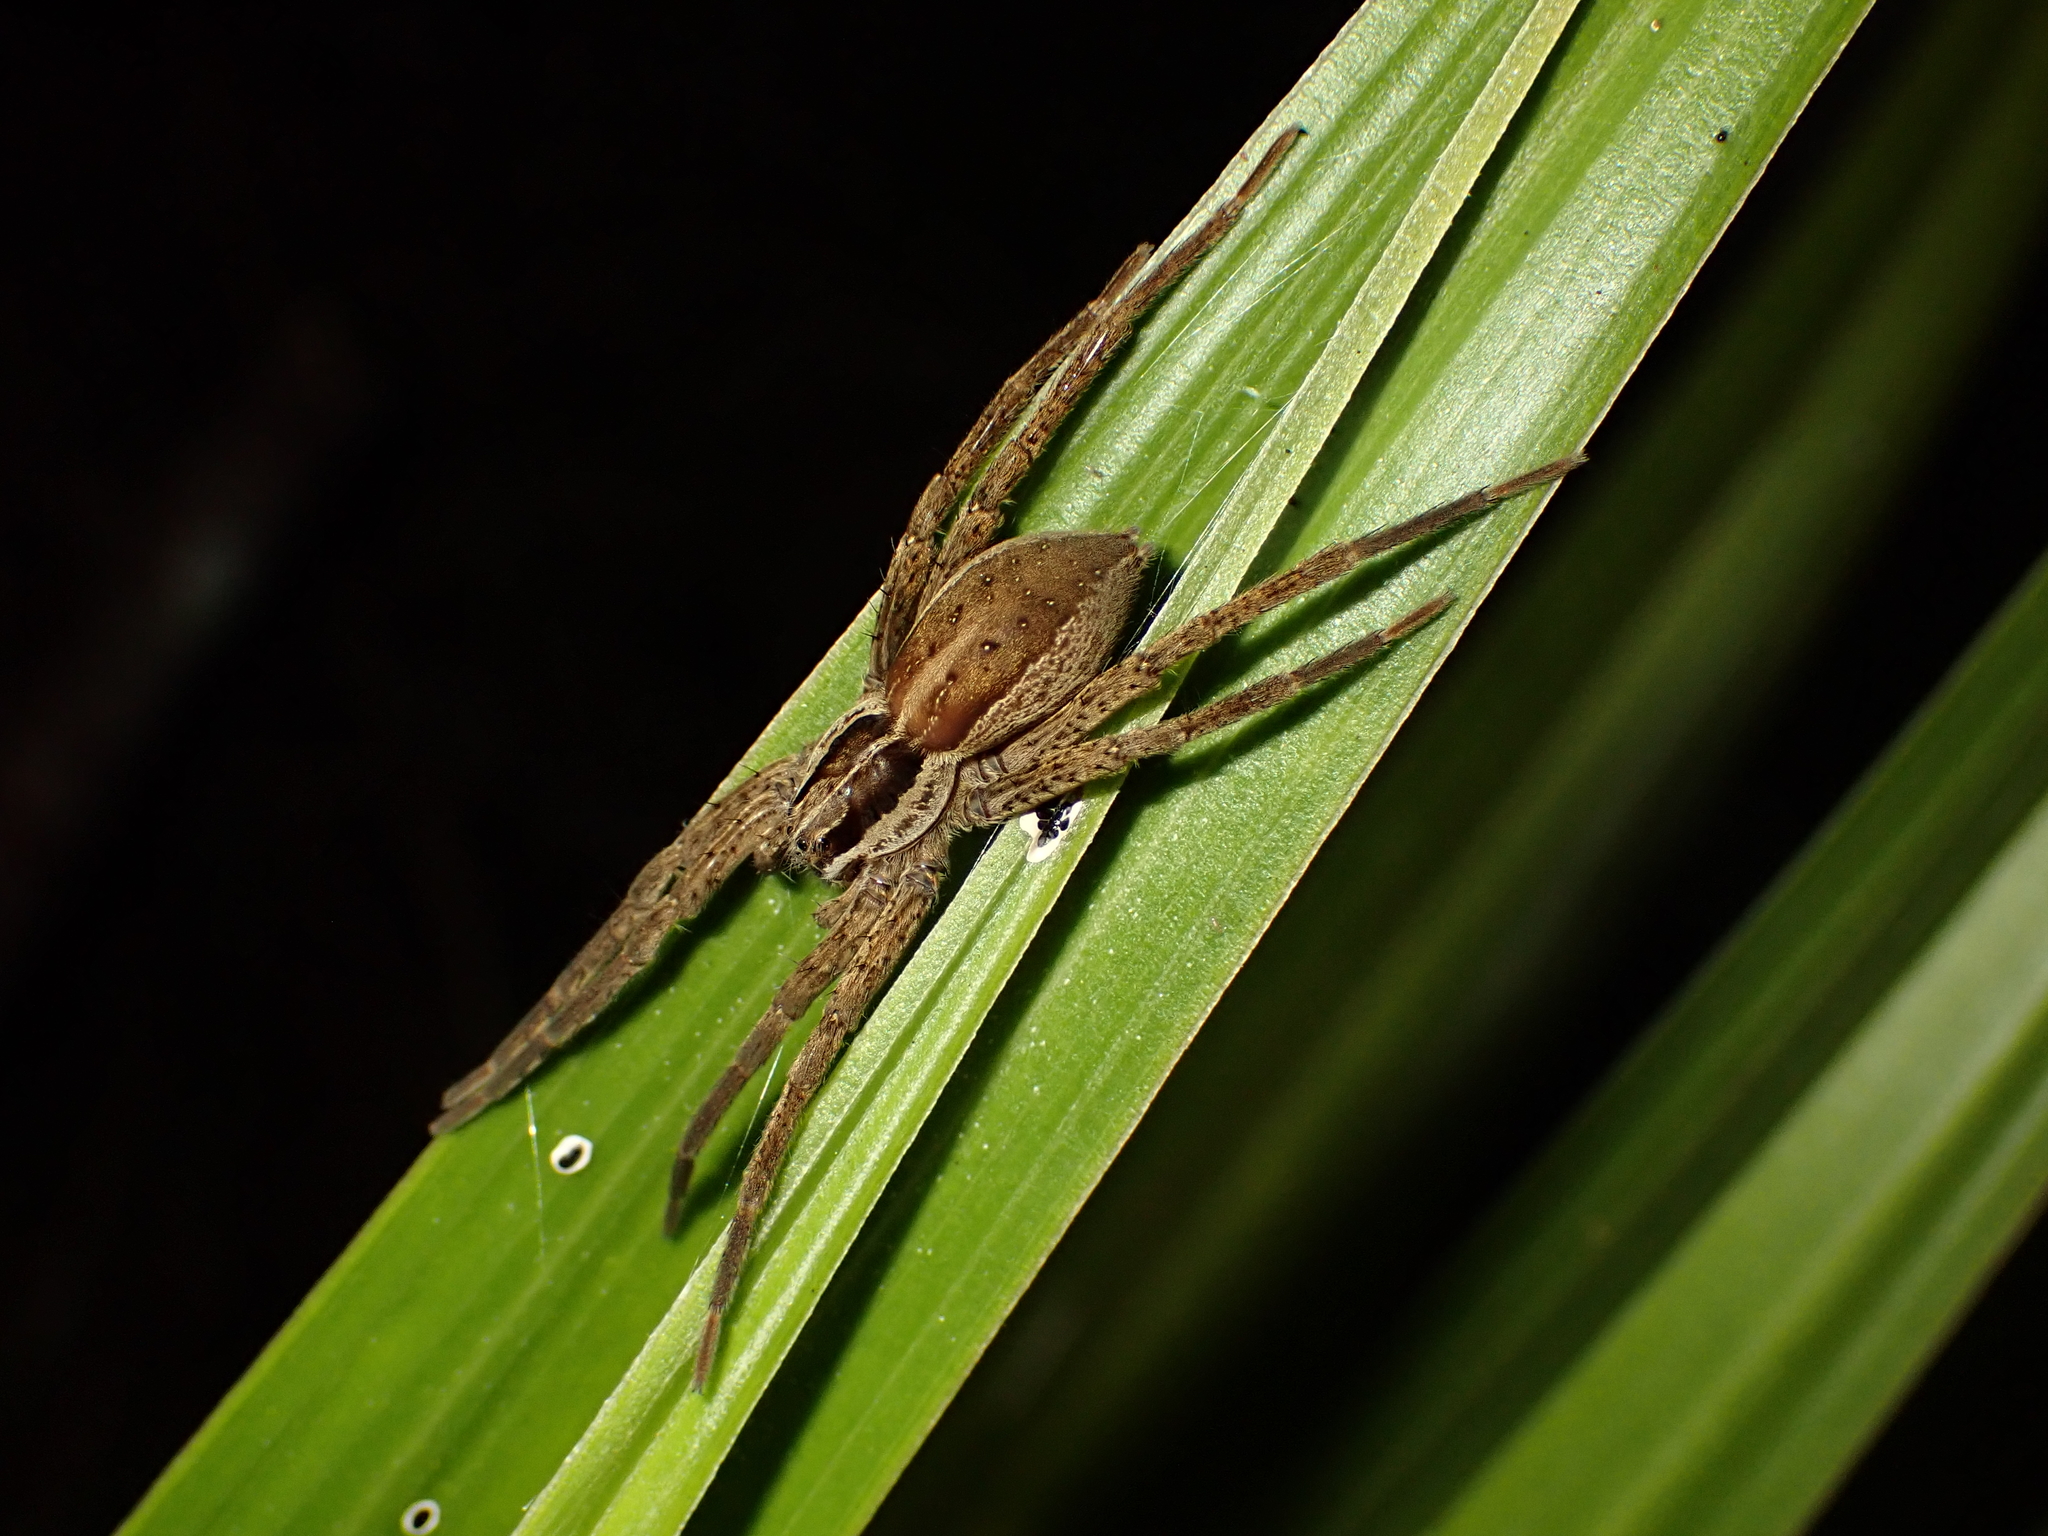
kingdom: Animalia
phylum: Arthropoda
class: Arachnida
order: Araneae
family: Pisauridae
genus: Dolomedes
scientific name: Dolomedes minor
